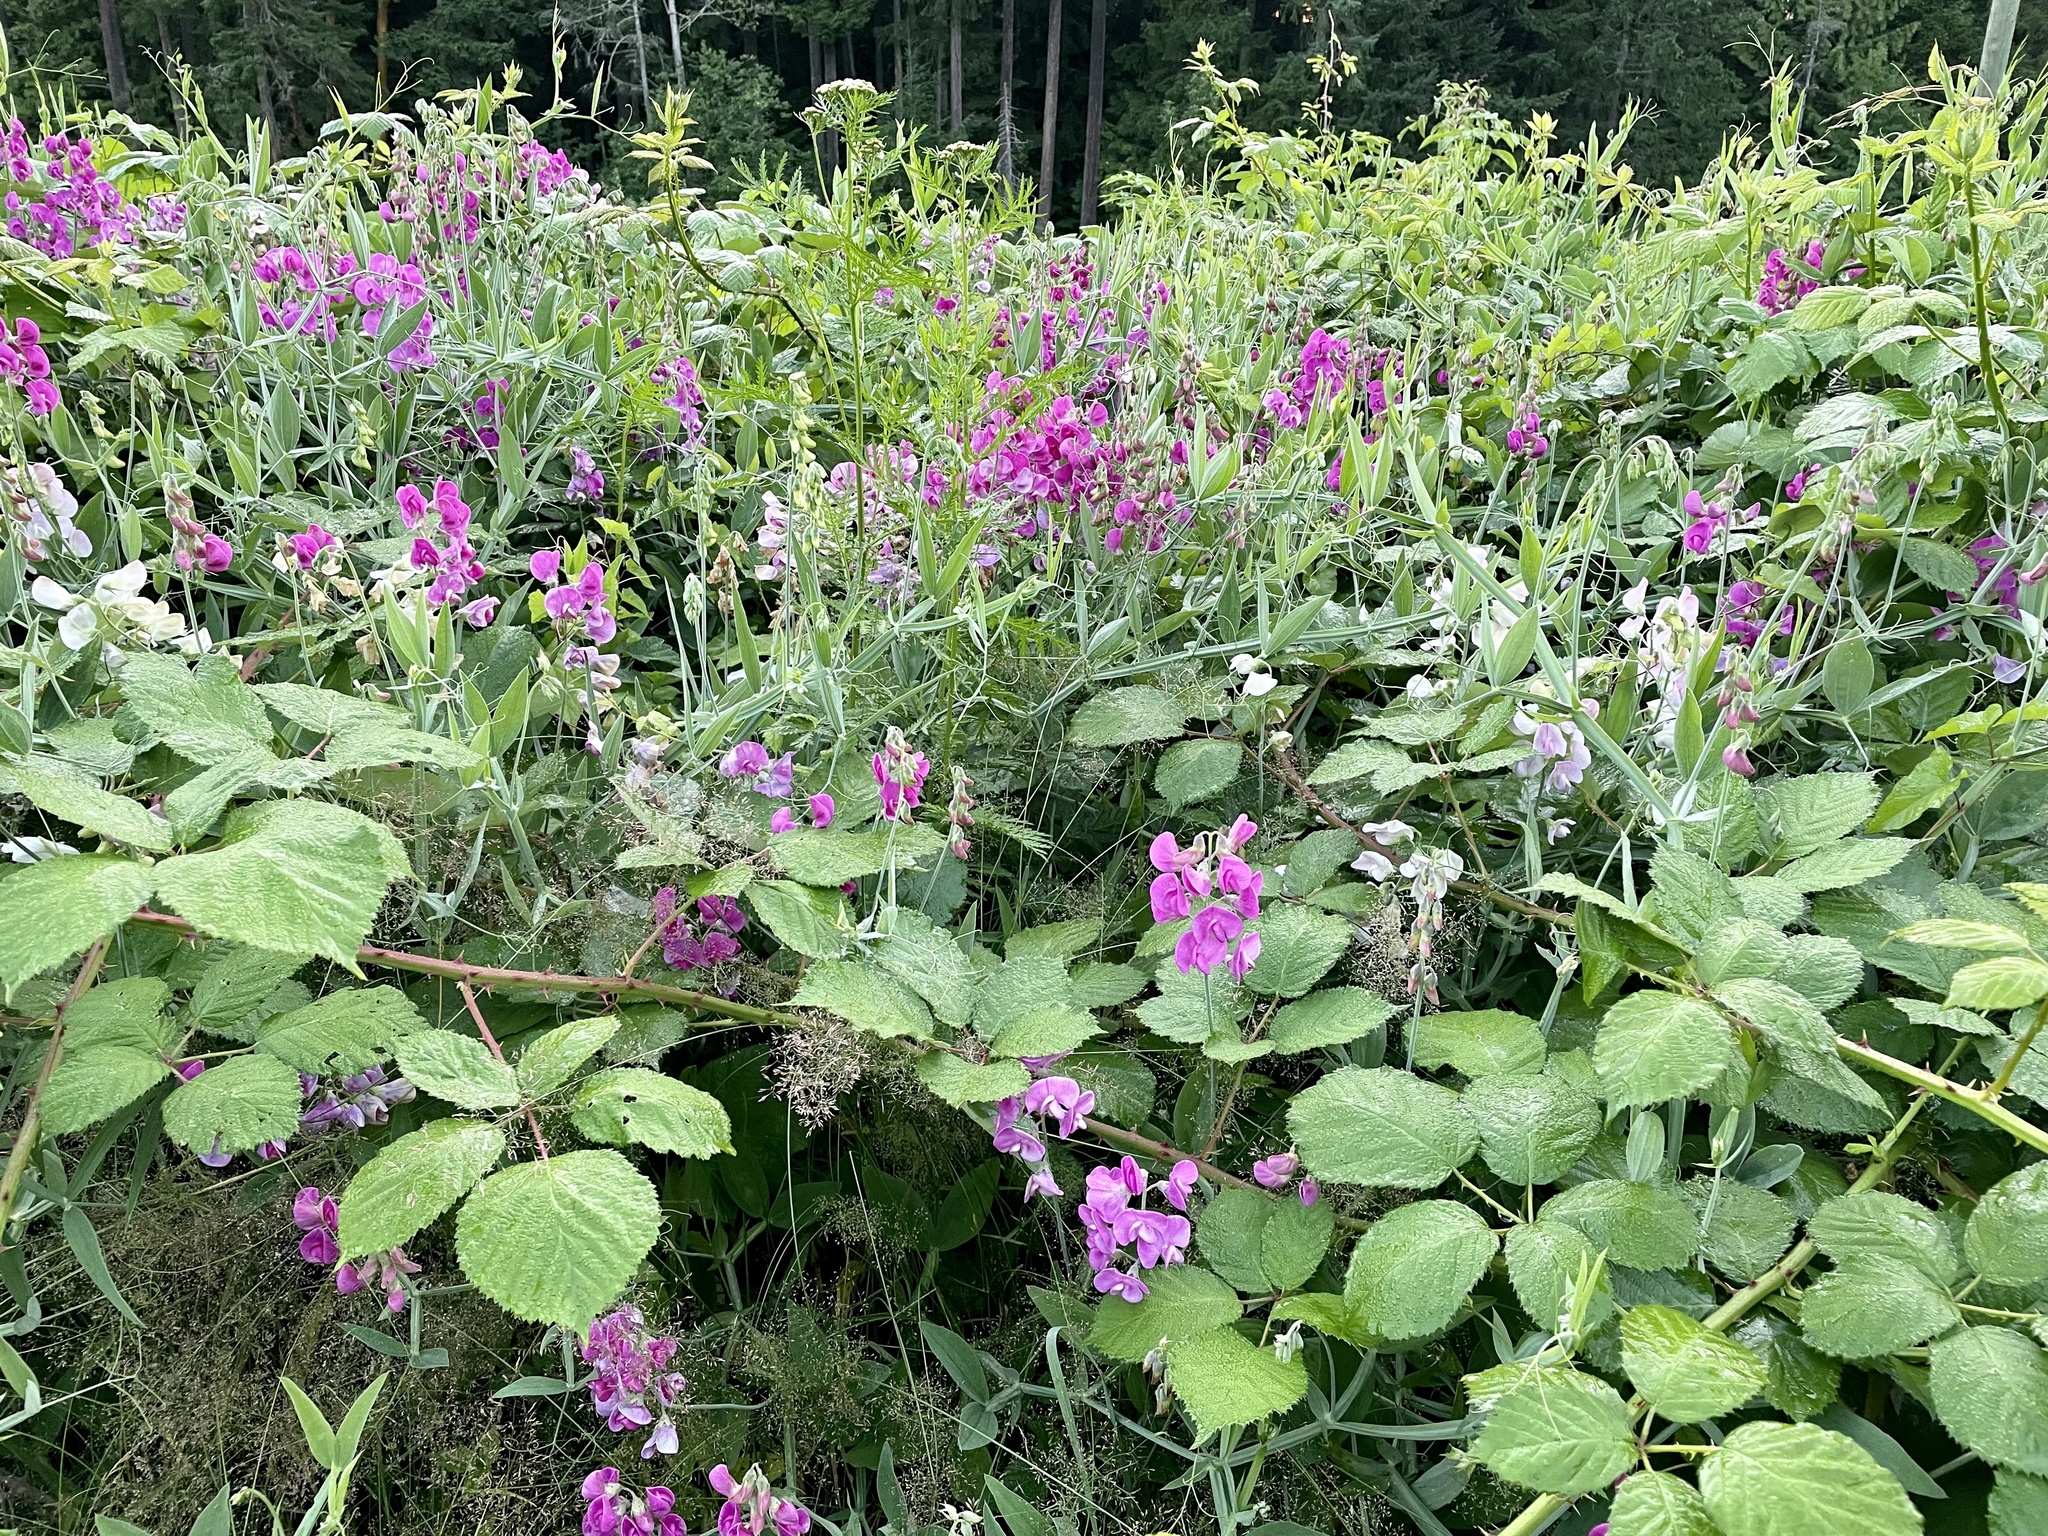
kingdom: Plantae
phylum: Tracheophyta
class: Magnoliopsida
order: Fabales
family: Fabaceae
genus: Lathyrus
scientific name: Lathyrus latifolius
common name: Perennial pea
